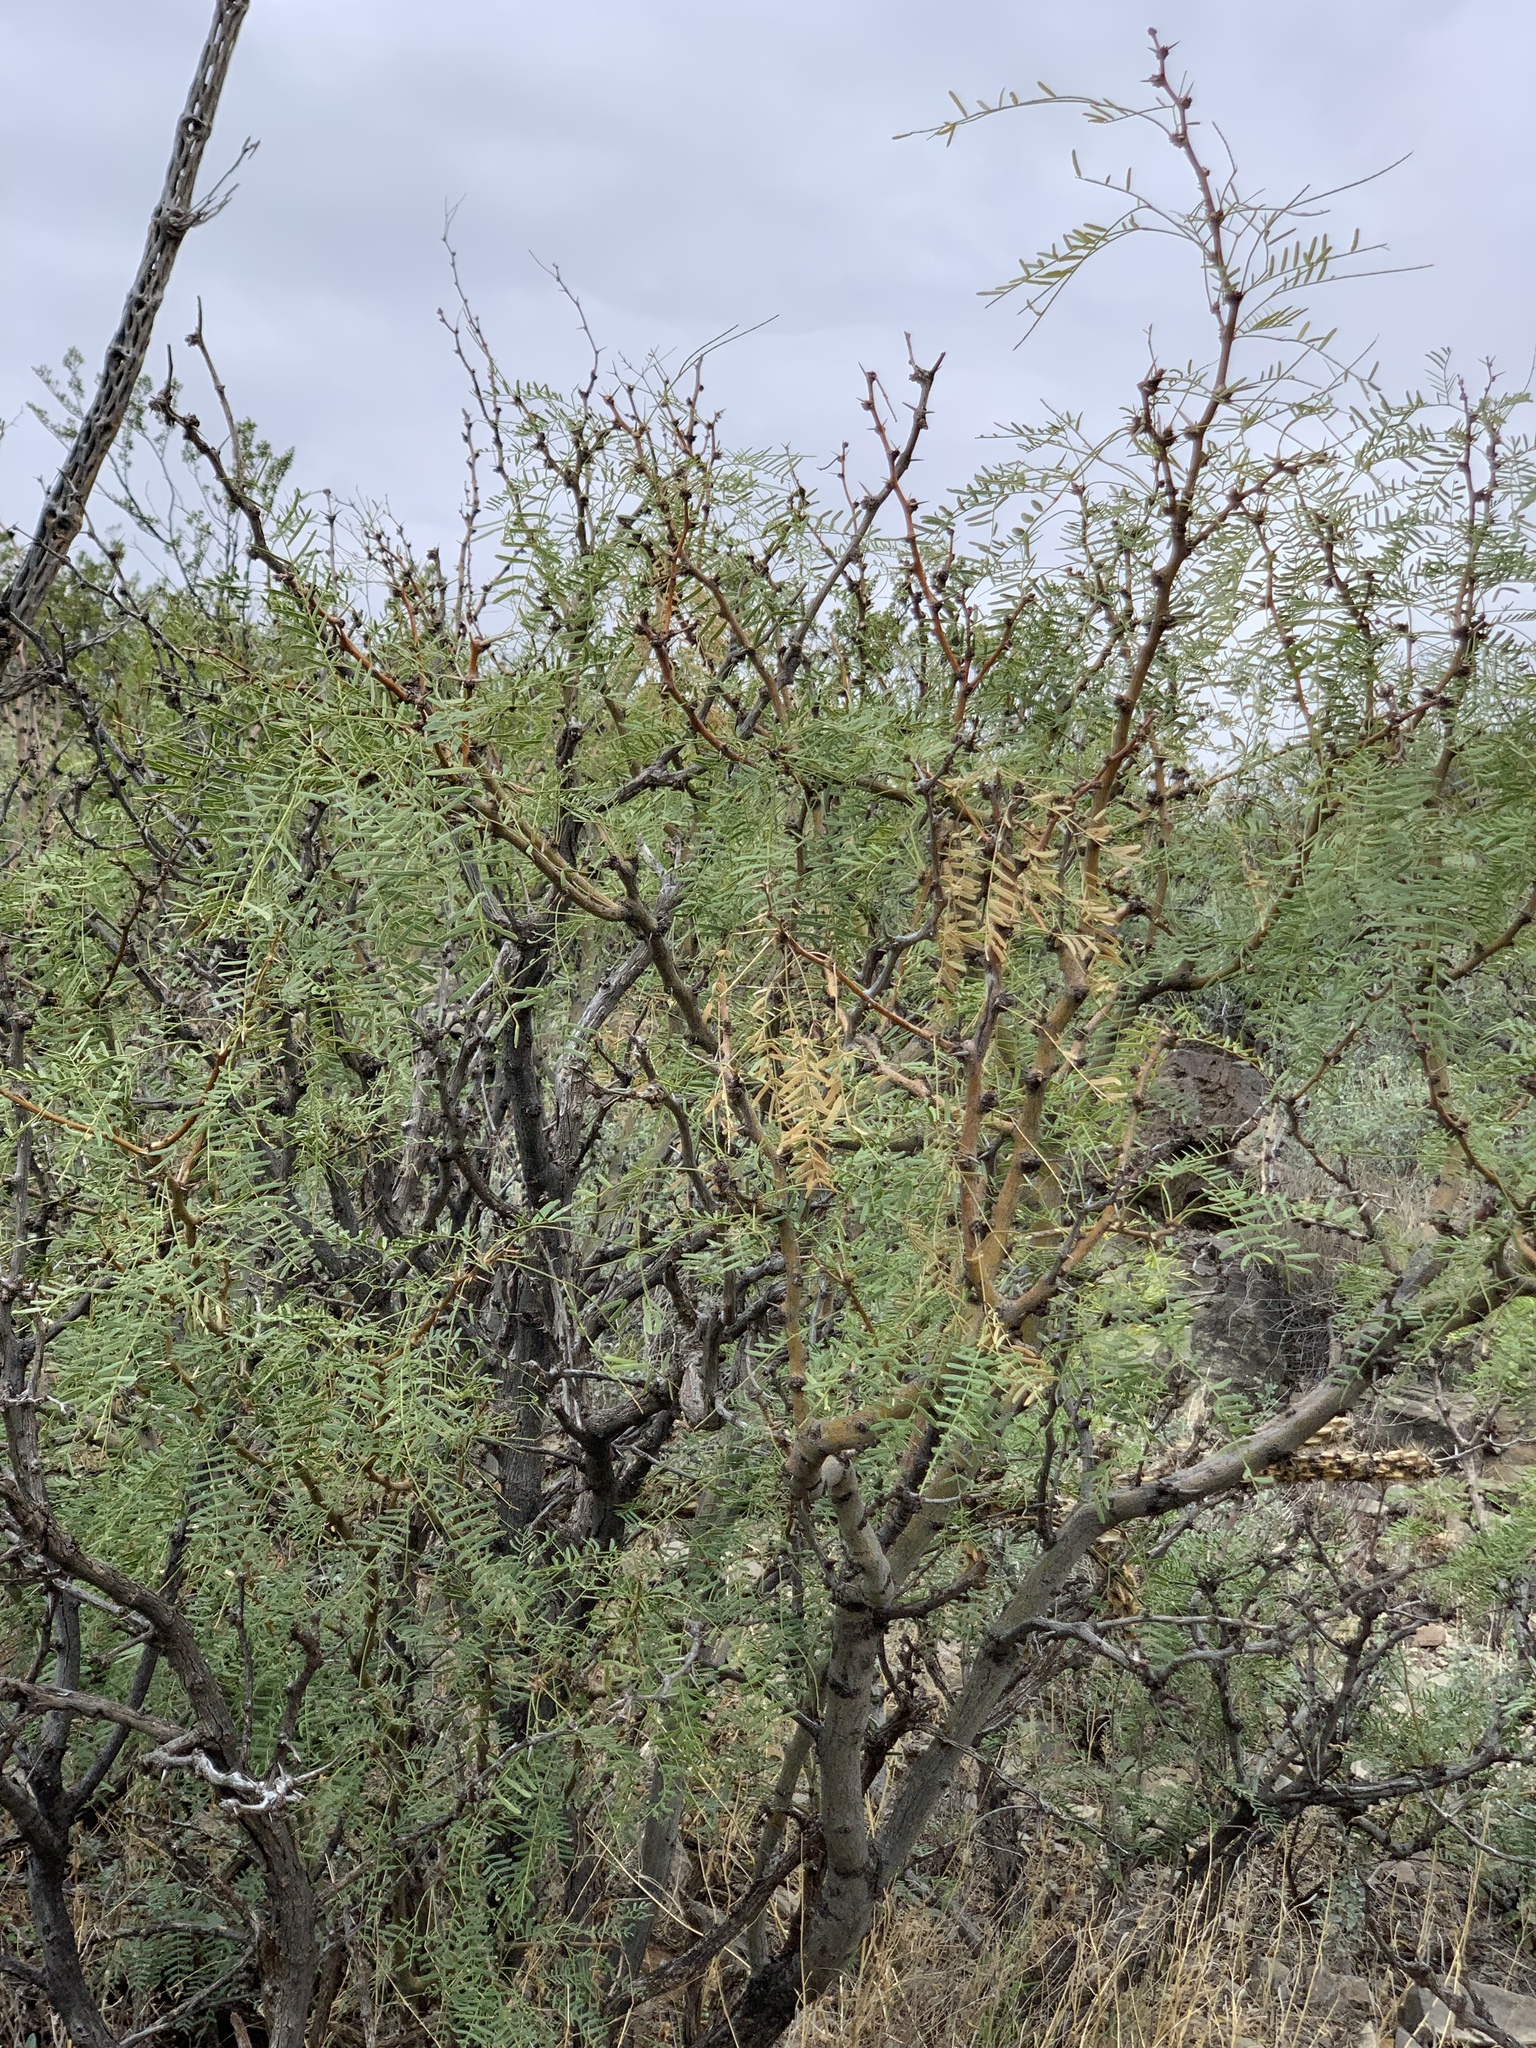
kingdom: Plantae
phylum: Tracheophyta
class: Magnoliopsida
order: Fabales
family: Fabaceae
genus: Prosopis
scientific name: Prosopis glandulosa
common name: Honey mesquite
